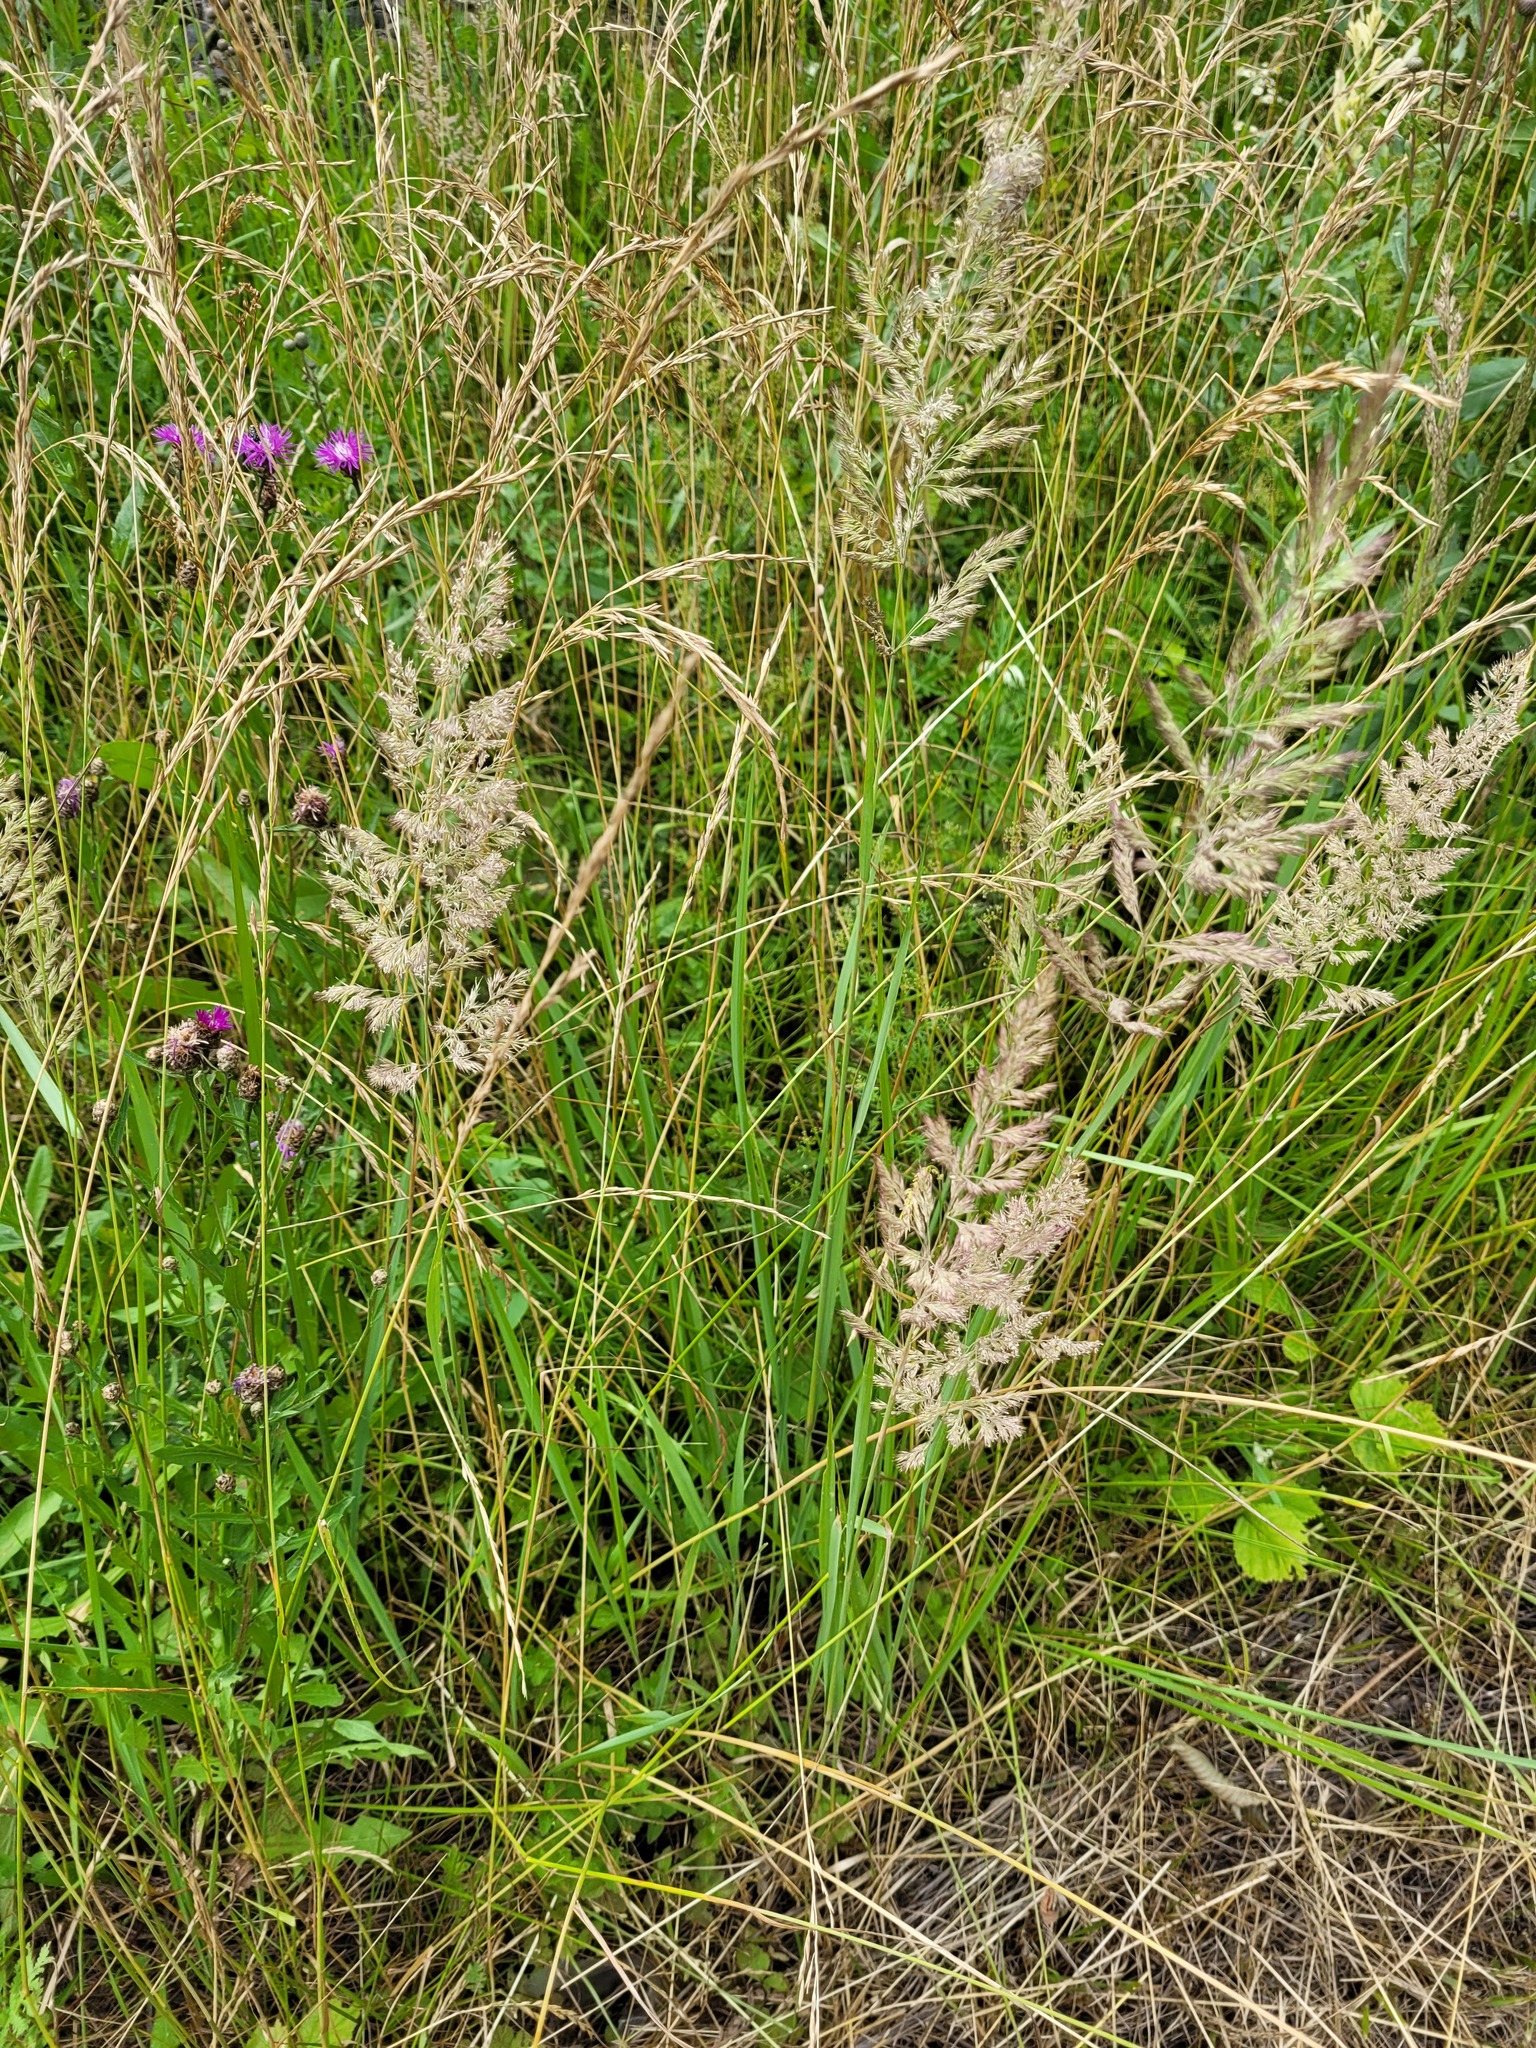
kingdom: Plantae
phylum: Tracheophyta
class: Liliopsida
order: Poales
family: Poaceae
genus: Calamagrostis
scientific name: Calamagrostis epigejos
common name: Wood small-reed
